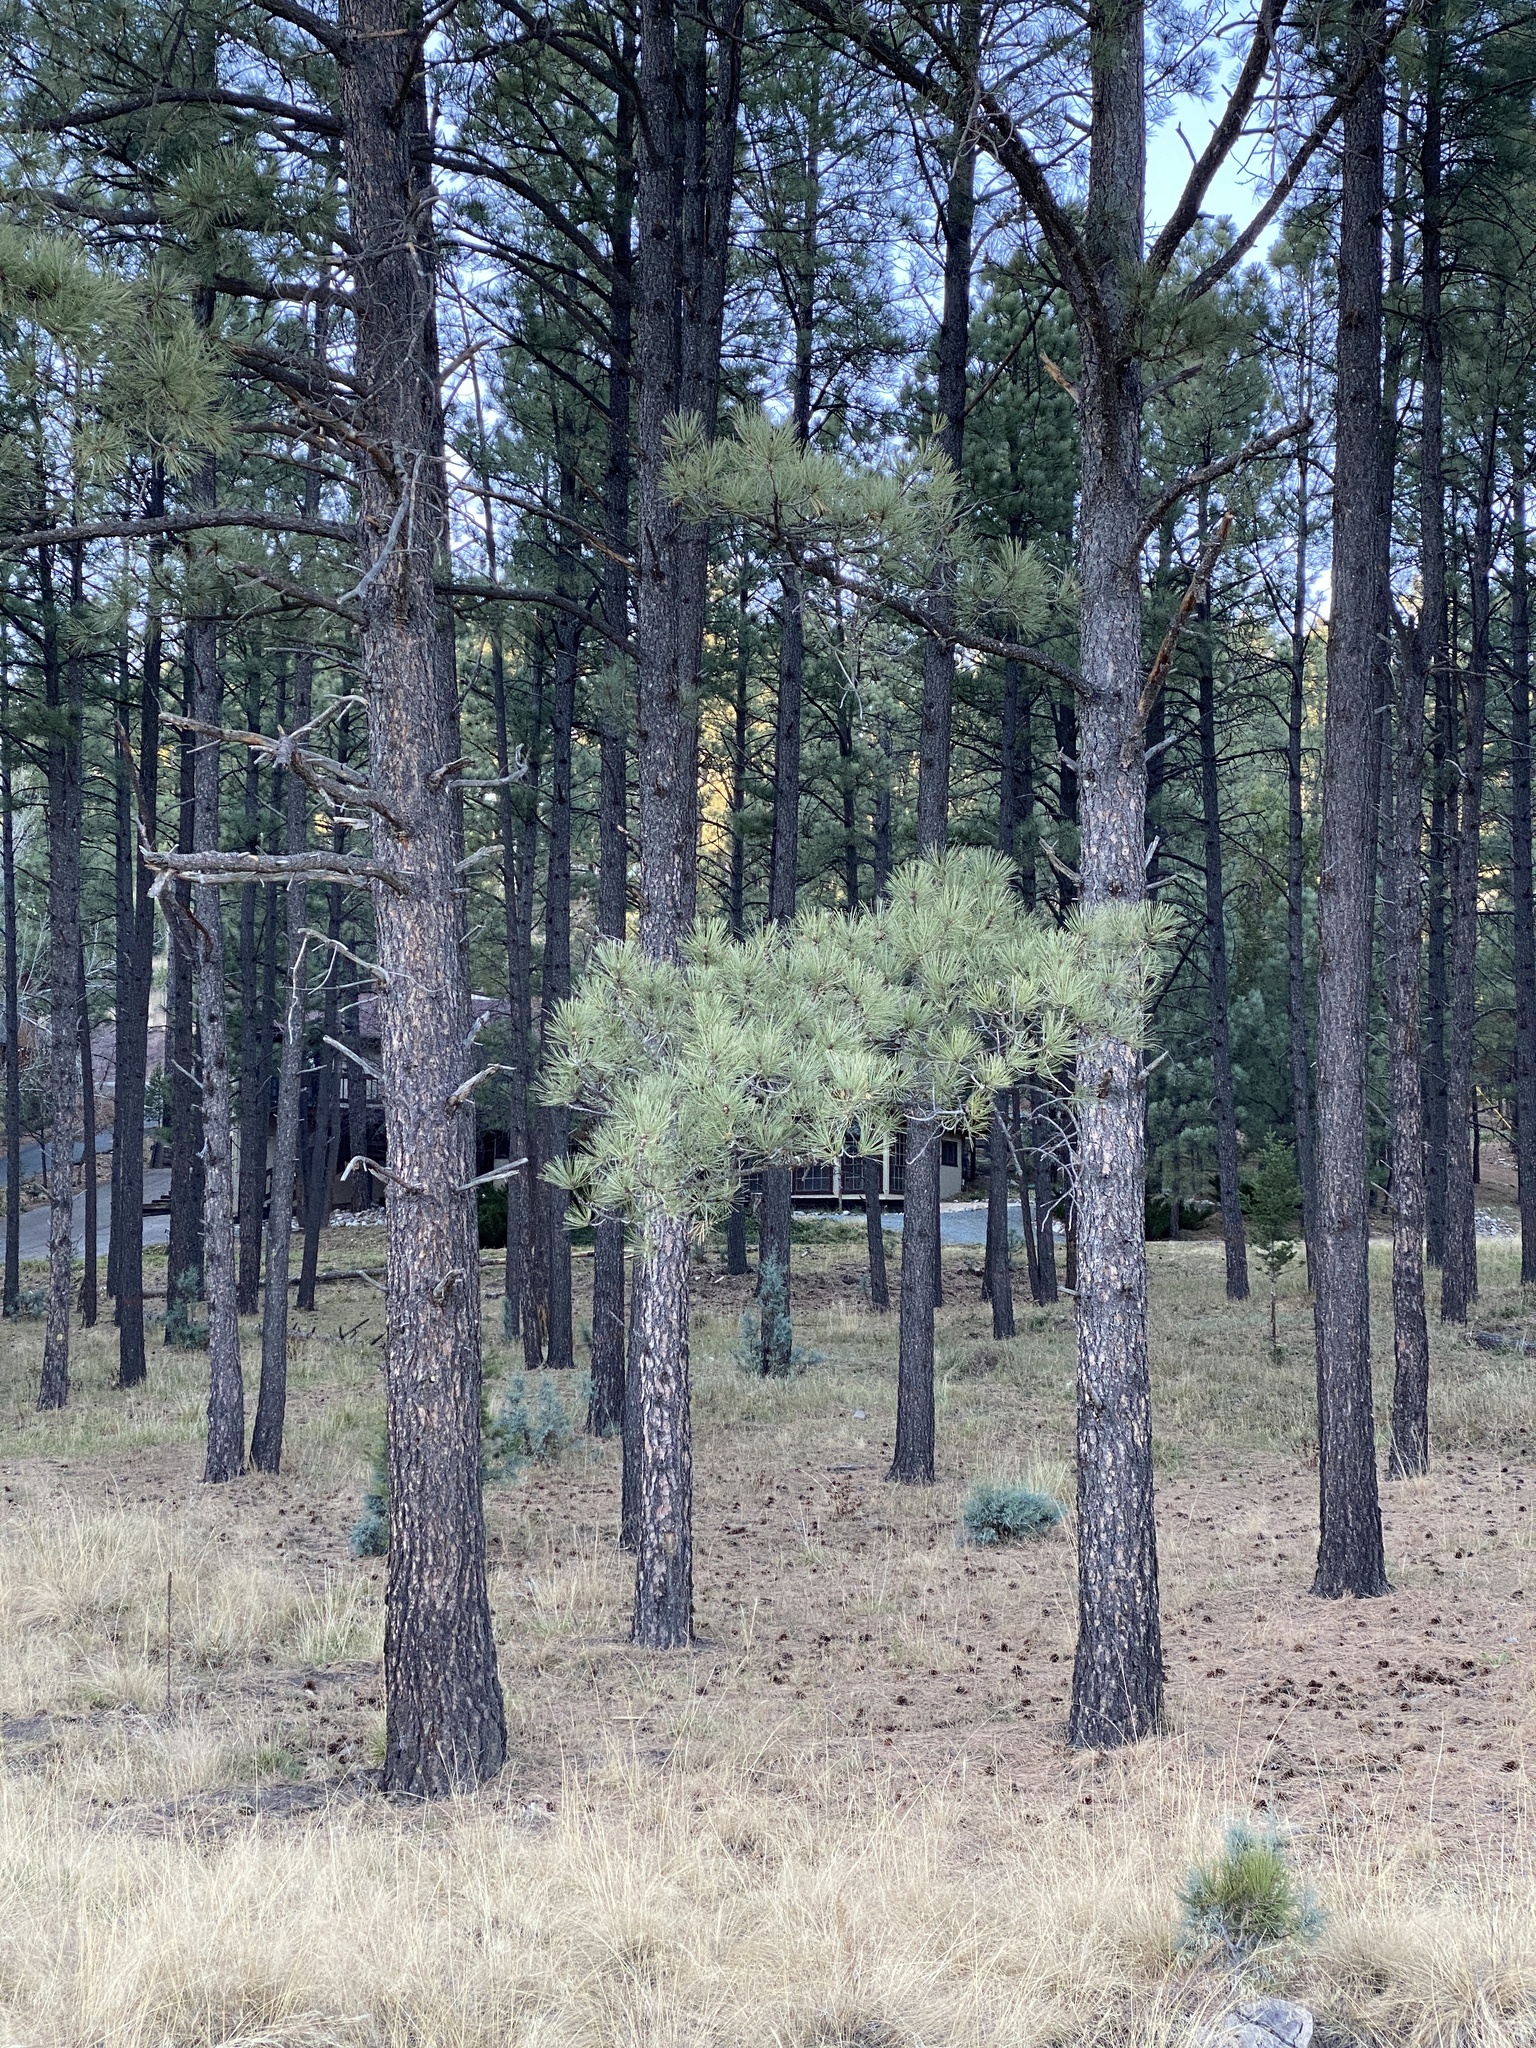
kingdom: Plantae
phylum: Tracheophyta
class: Pinopsida
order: Pinales
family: Pinaceae
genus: Pinus
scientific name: Pinus ponderosa
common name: Western yellow-pine
